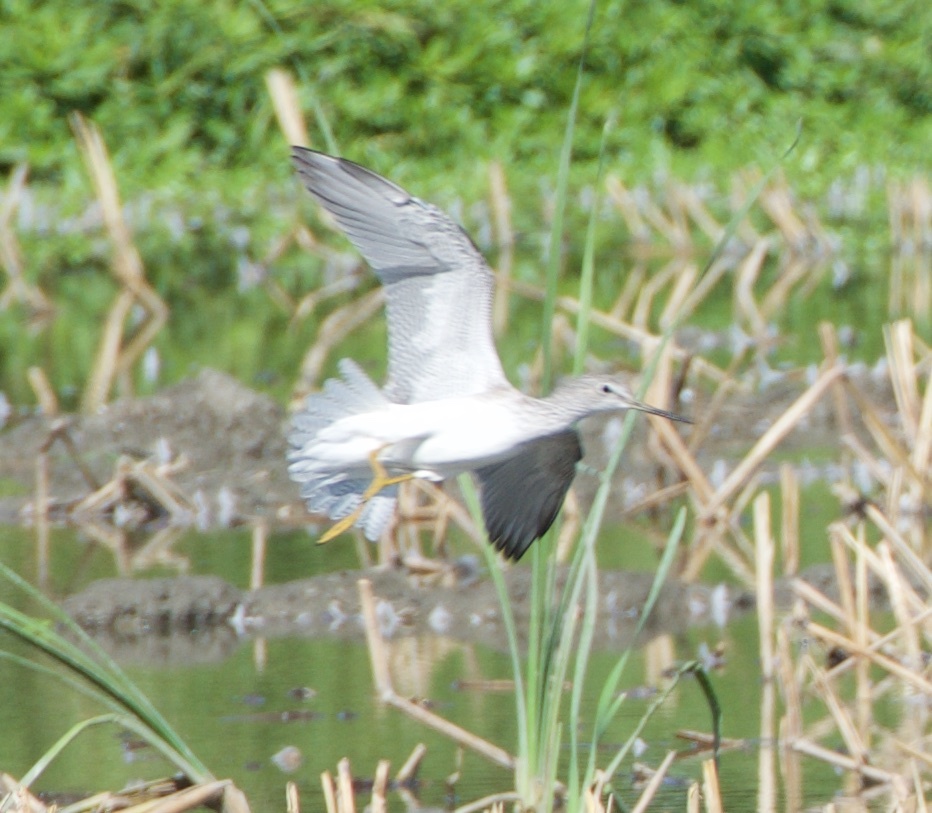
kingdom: Animalia
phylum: Chordata
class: Aves
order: Charadriiformes
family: Scolopacidae
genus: Tringa
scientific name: Tringa melanoleuca
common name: Greater yellowlegs
